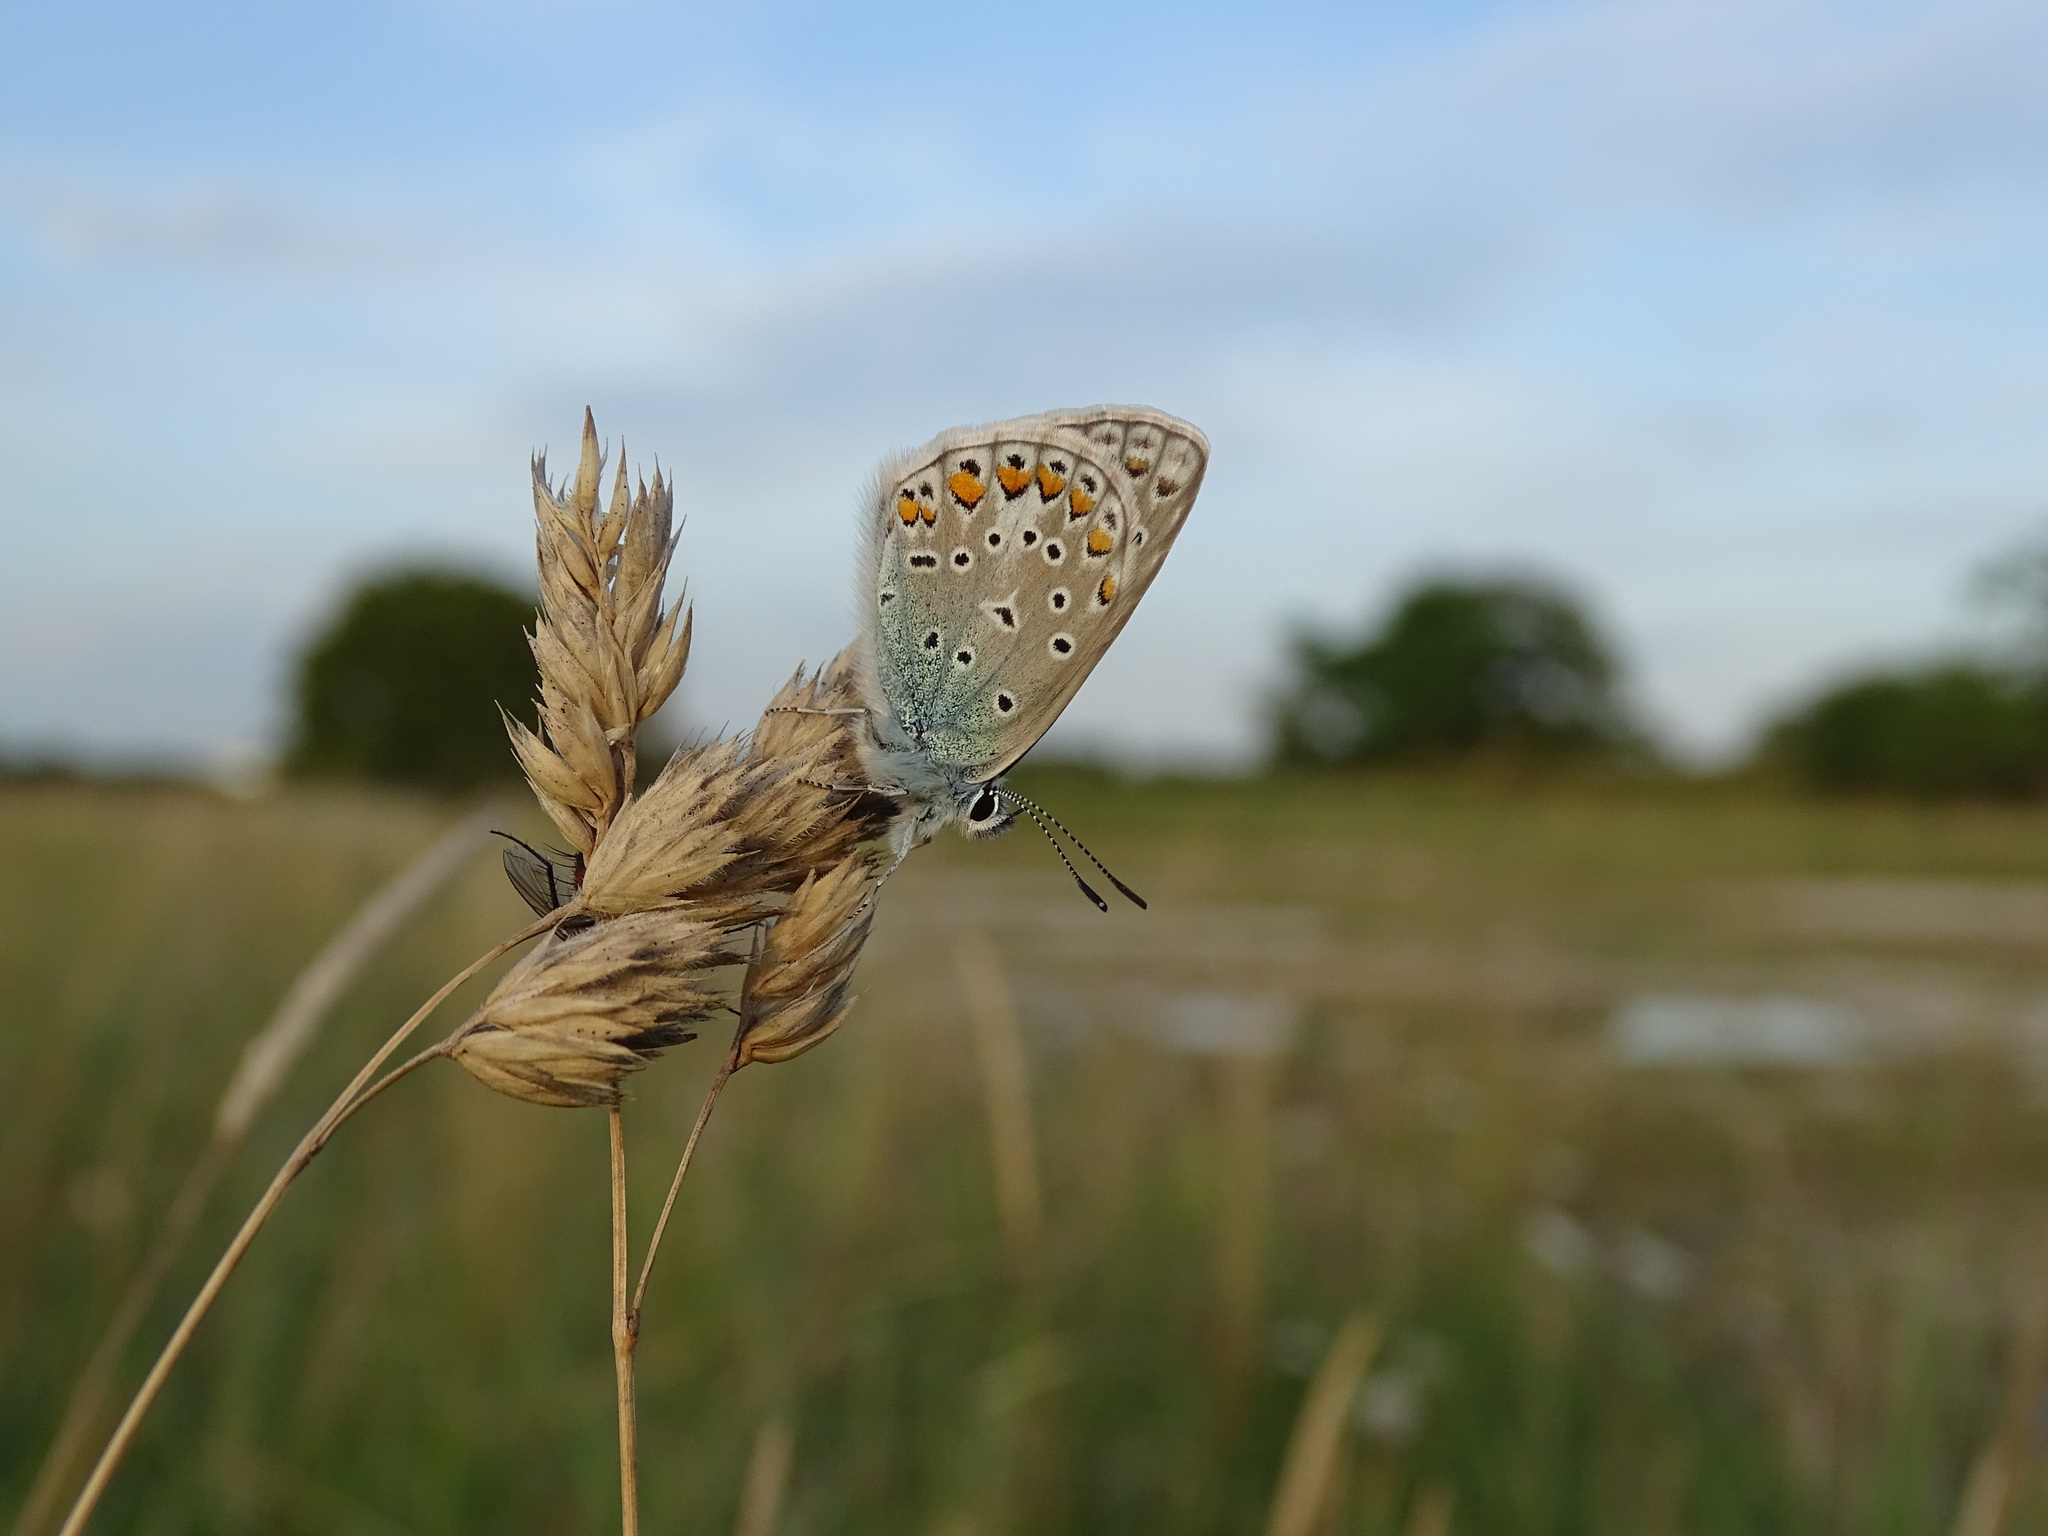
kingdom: Animalia
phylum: Arthropoda
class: Insecta
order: Lepidoptera
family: Lycaenidae
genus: Polyommatus
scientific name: Polyommatus icarus
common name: Common blue
